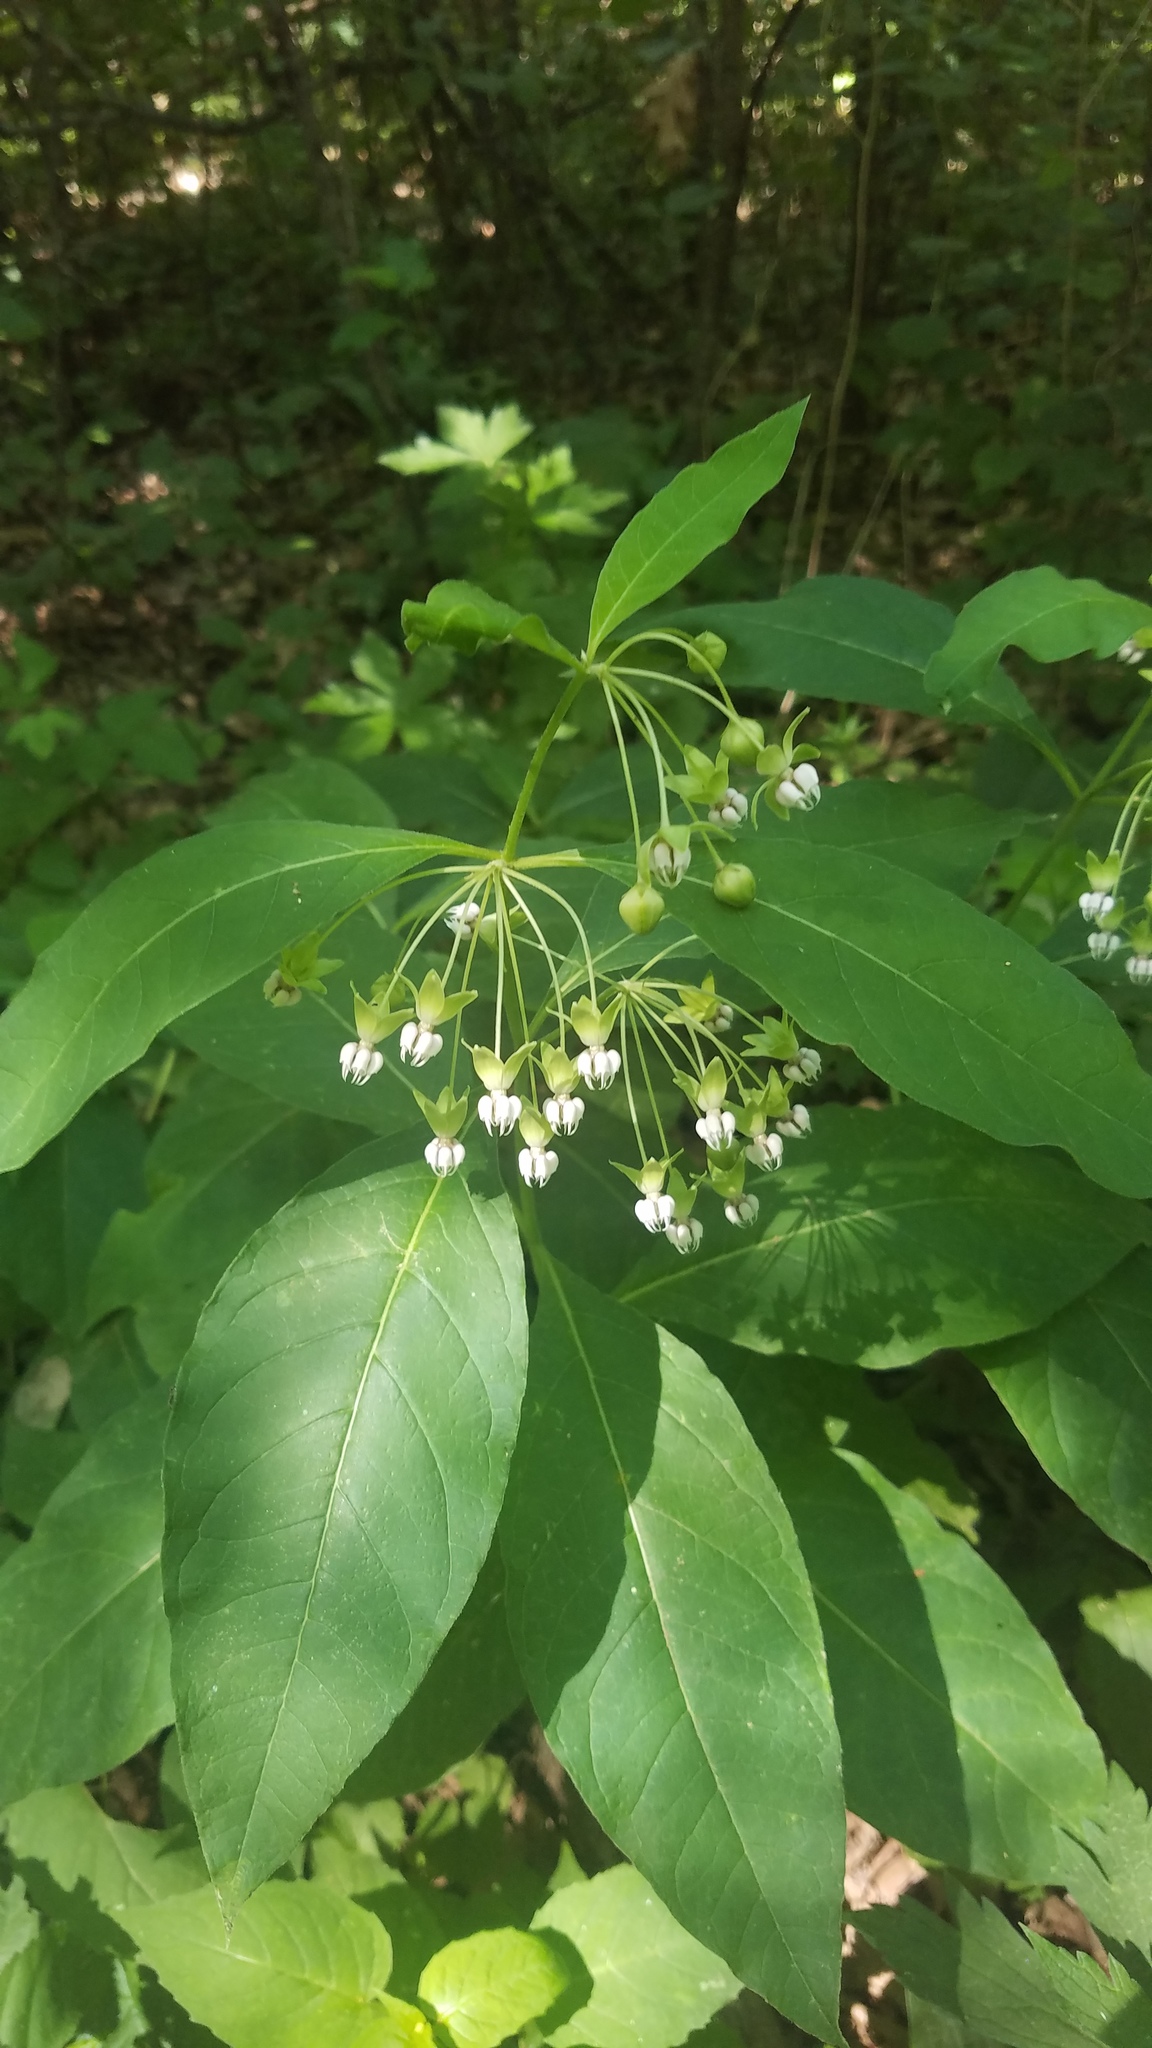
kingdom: Plantae
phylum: Tracheophyta
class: Magnoliopsida
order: Gentianales
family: Apocynaceae
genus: Asclepias
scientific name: Asclepias exaltata
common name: Poke milkweed
